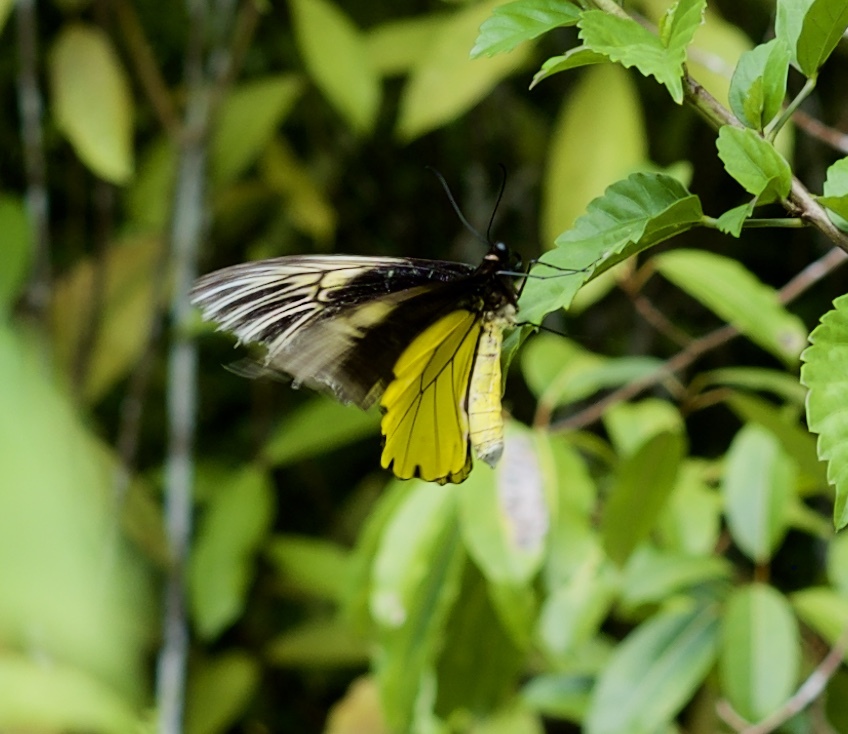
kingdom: Animalia
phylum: Arthropoda
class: Insecta
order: Lepidoptera
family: Papilionidae
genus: Troides
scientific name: Troides amphrysus
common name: Malay birdwing
